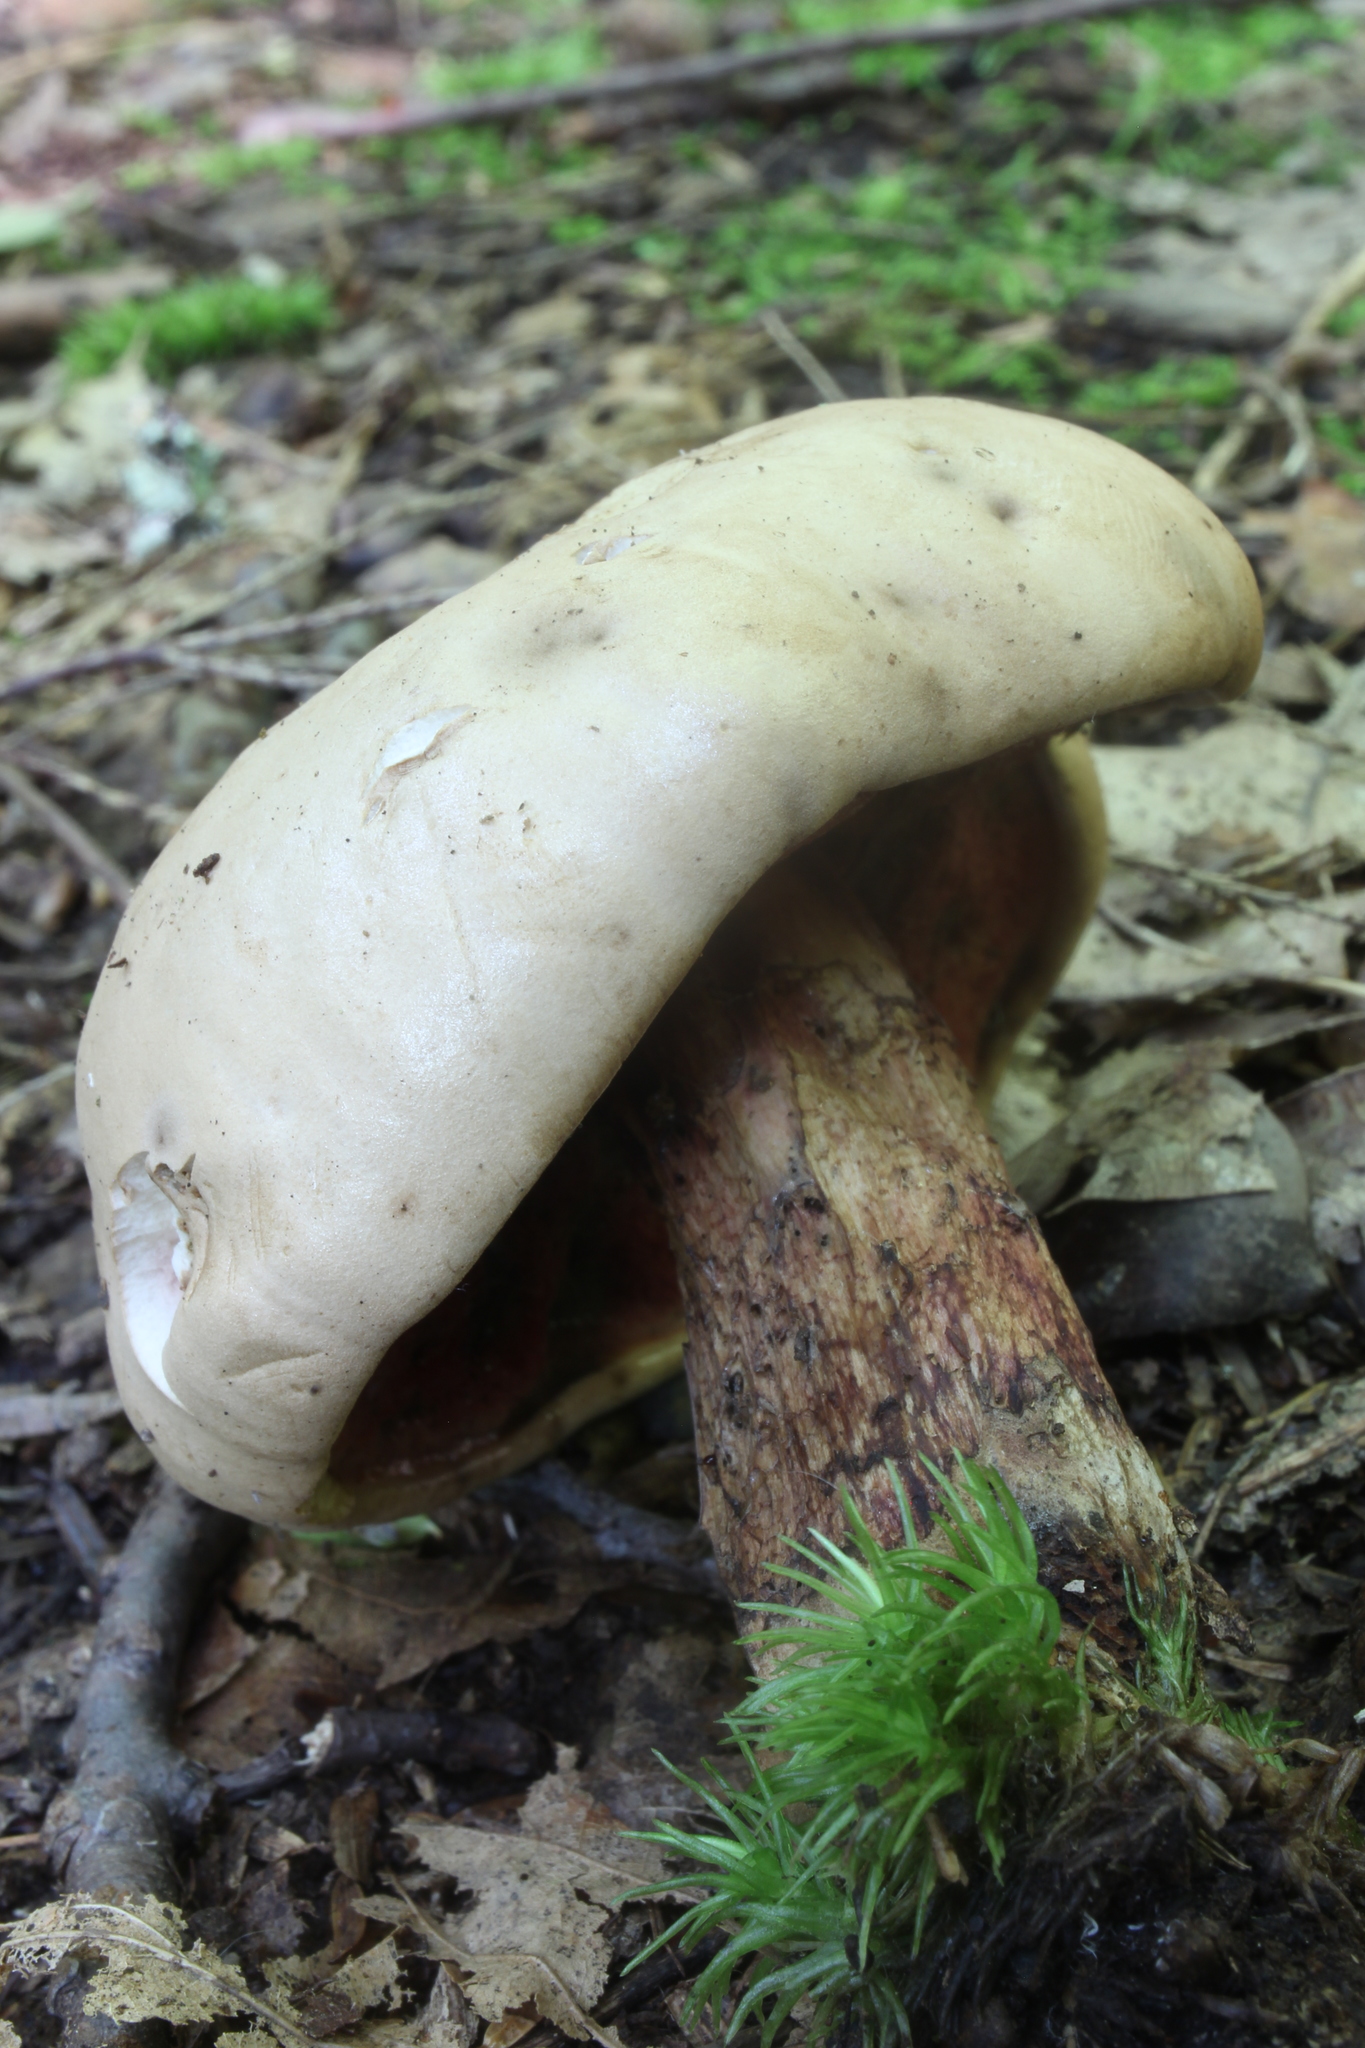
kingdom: Fungi
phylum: Basidiomycota
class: Agaricomycetes
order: Boletales
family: Boletaceae
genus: Caloboletus
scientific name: Caloboletus firmus
